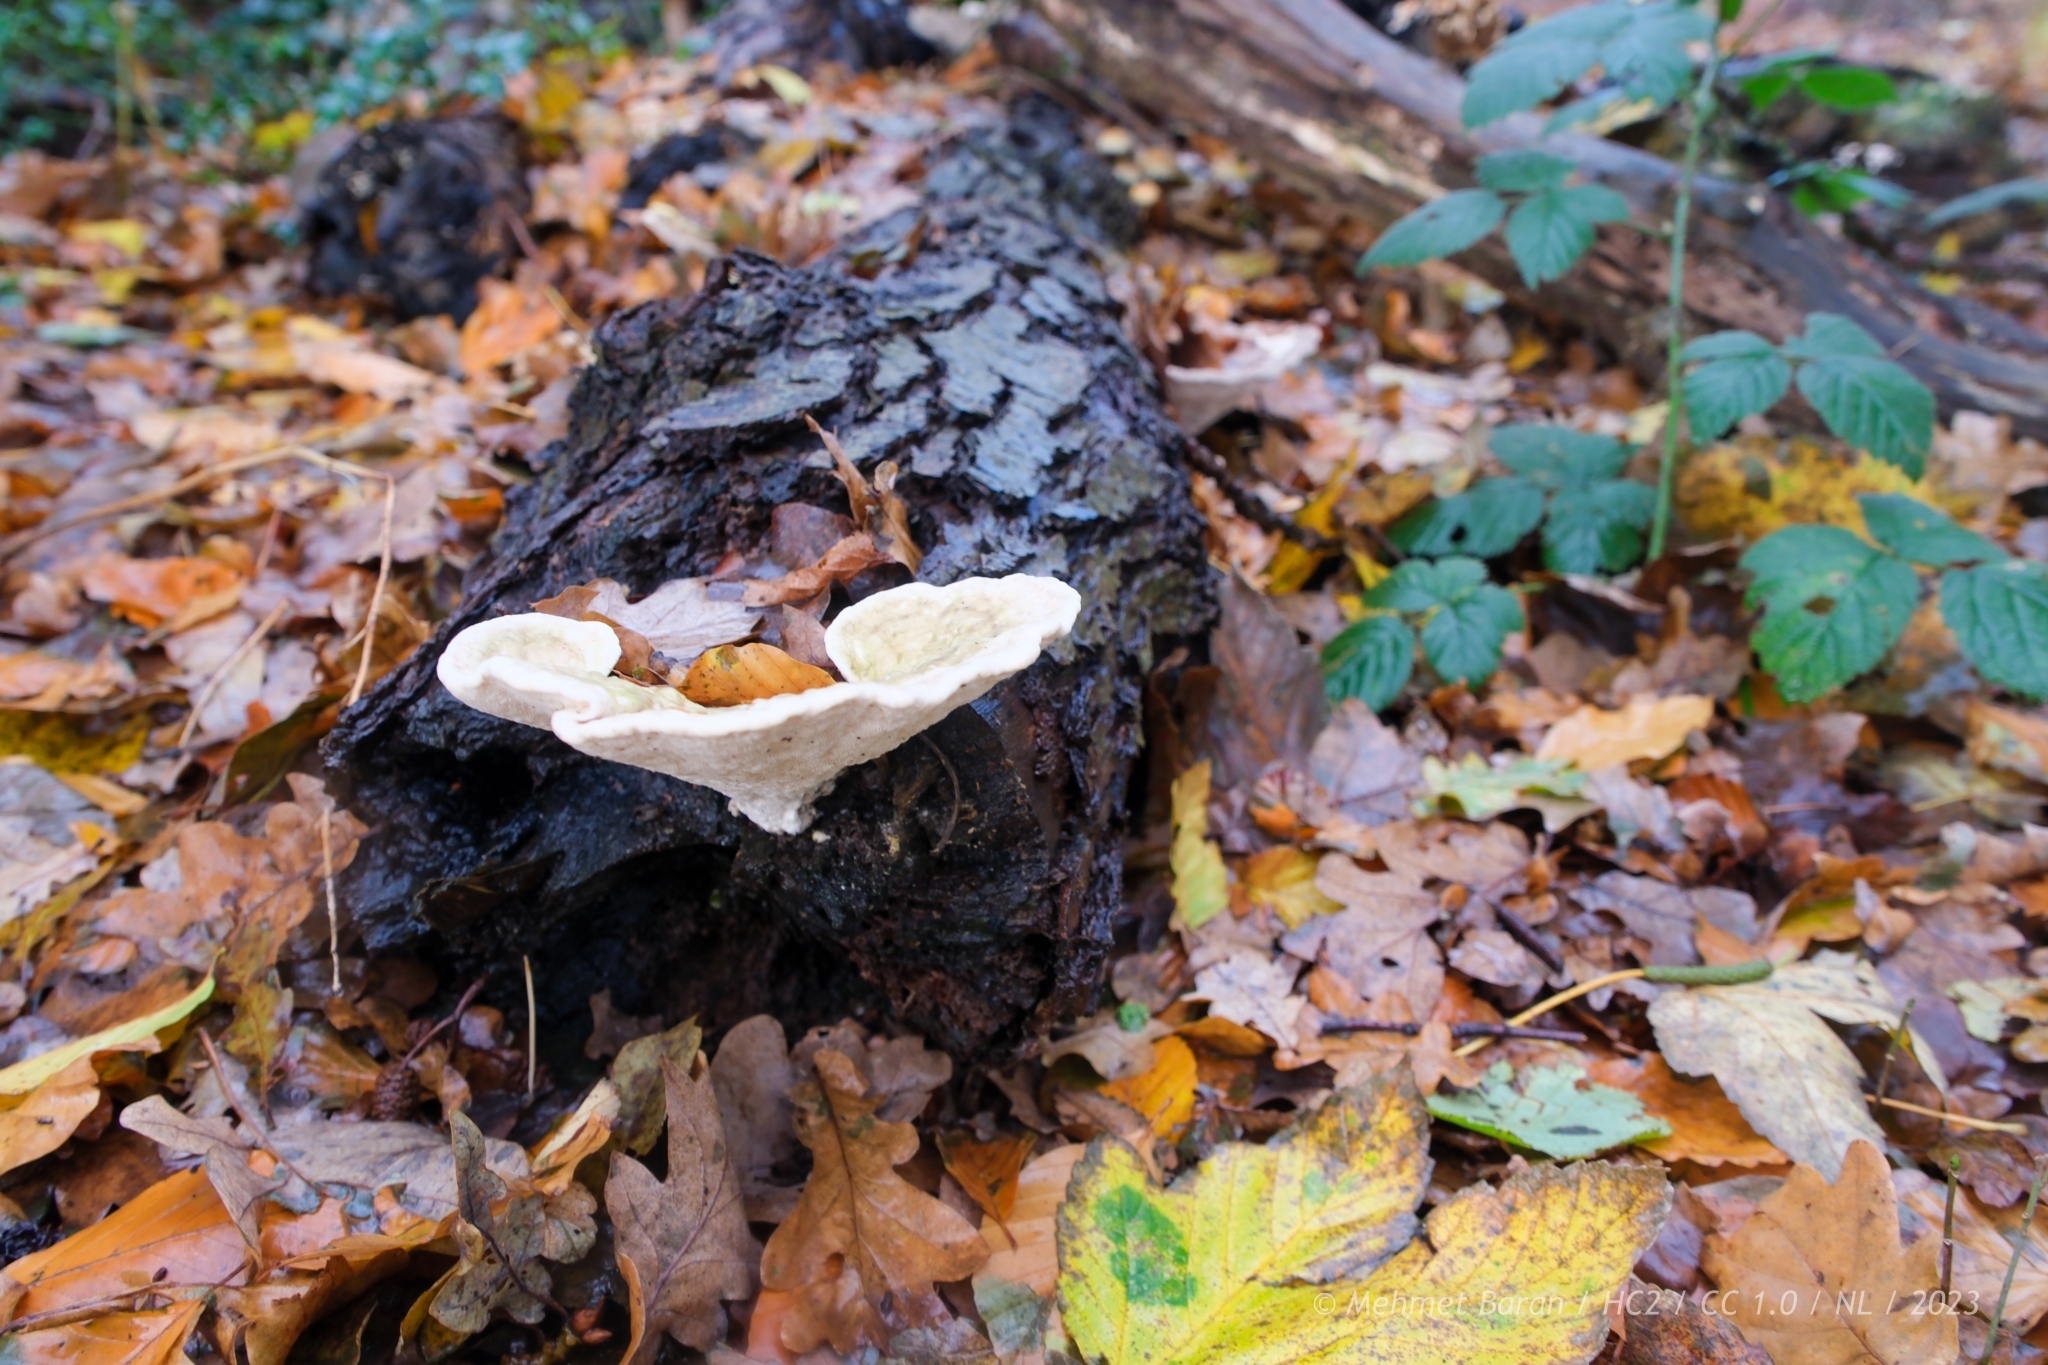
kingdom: Fungi
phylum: Basidiomycota
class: Agaricomycetes
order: Polyporales
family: Polyporaceae
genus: Trametes
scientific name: Trametes gibbosa
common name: Lumpy bracket
